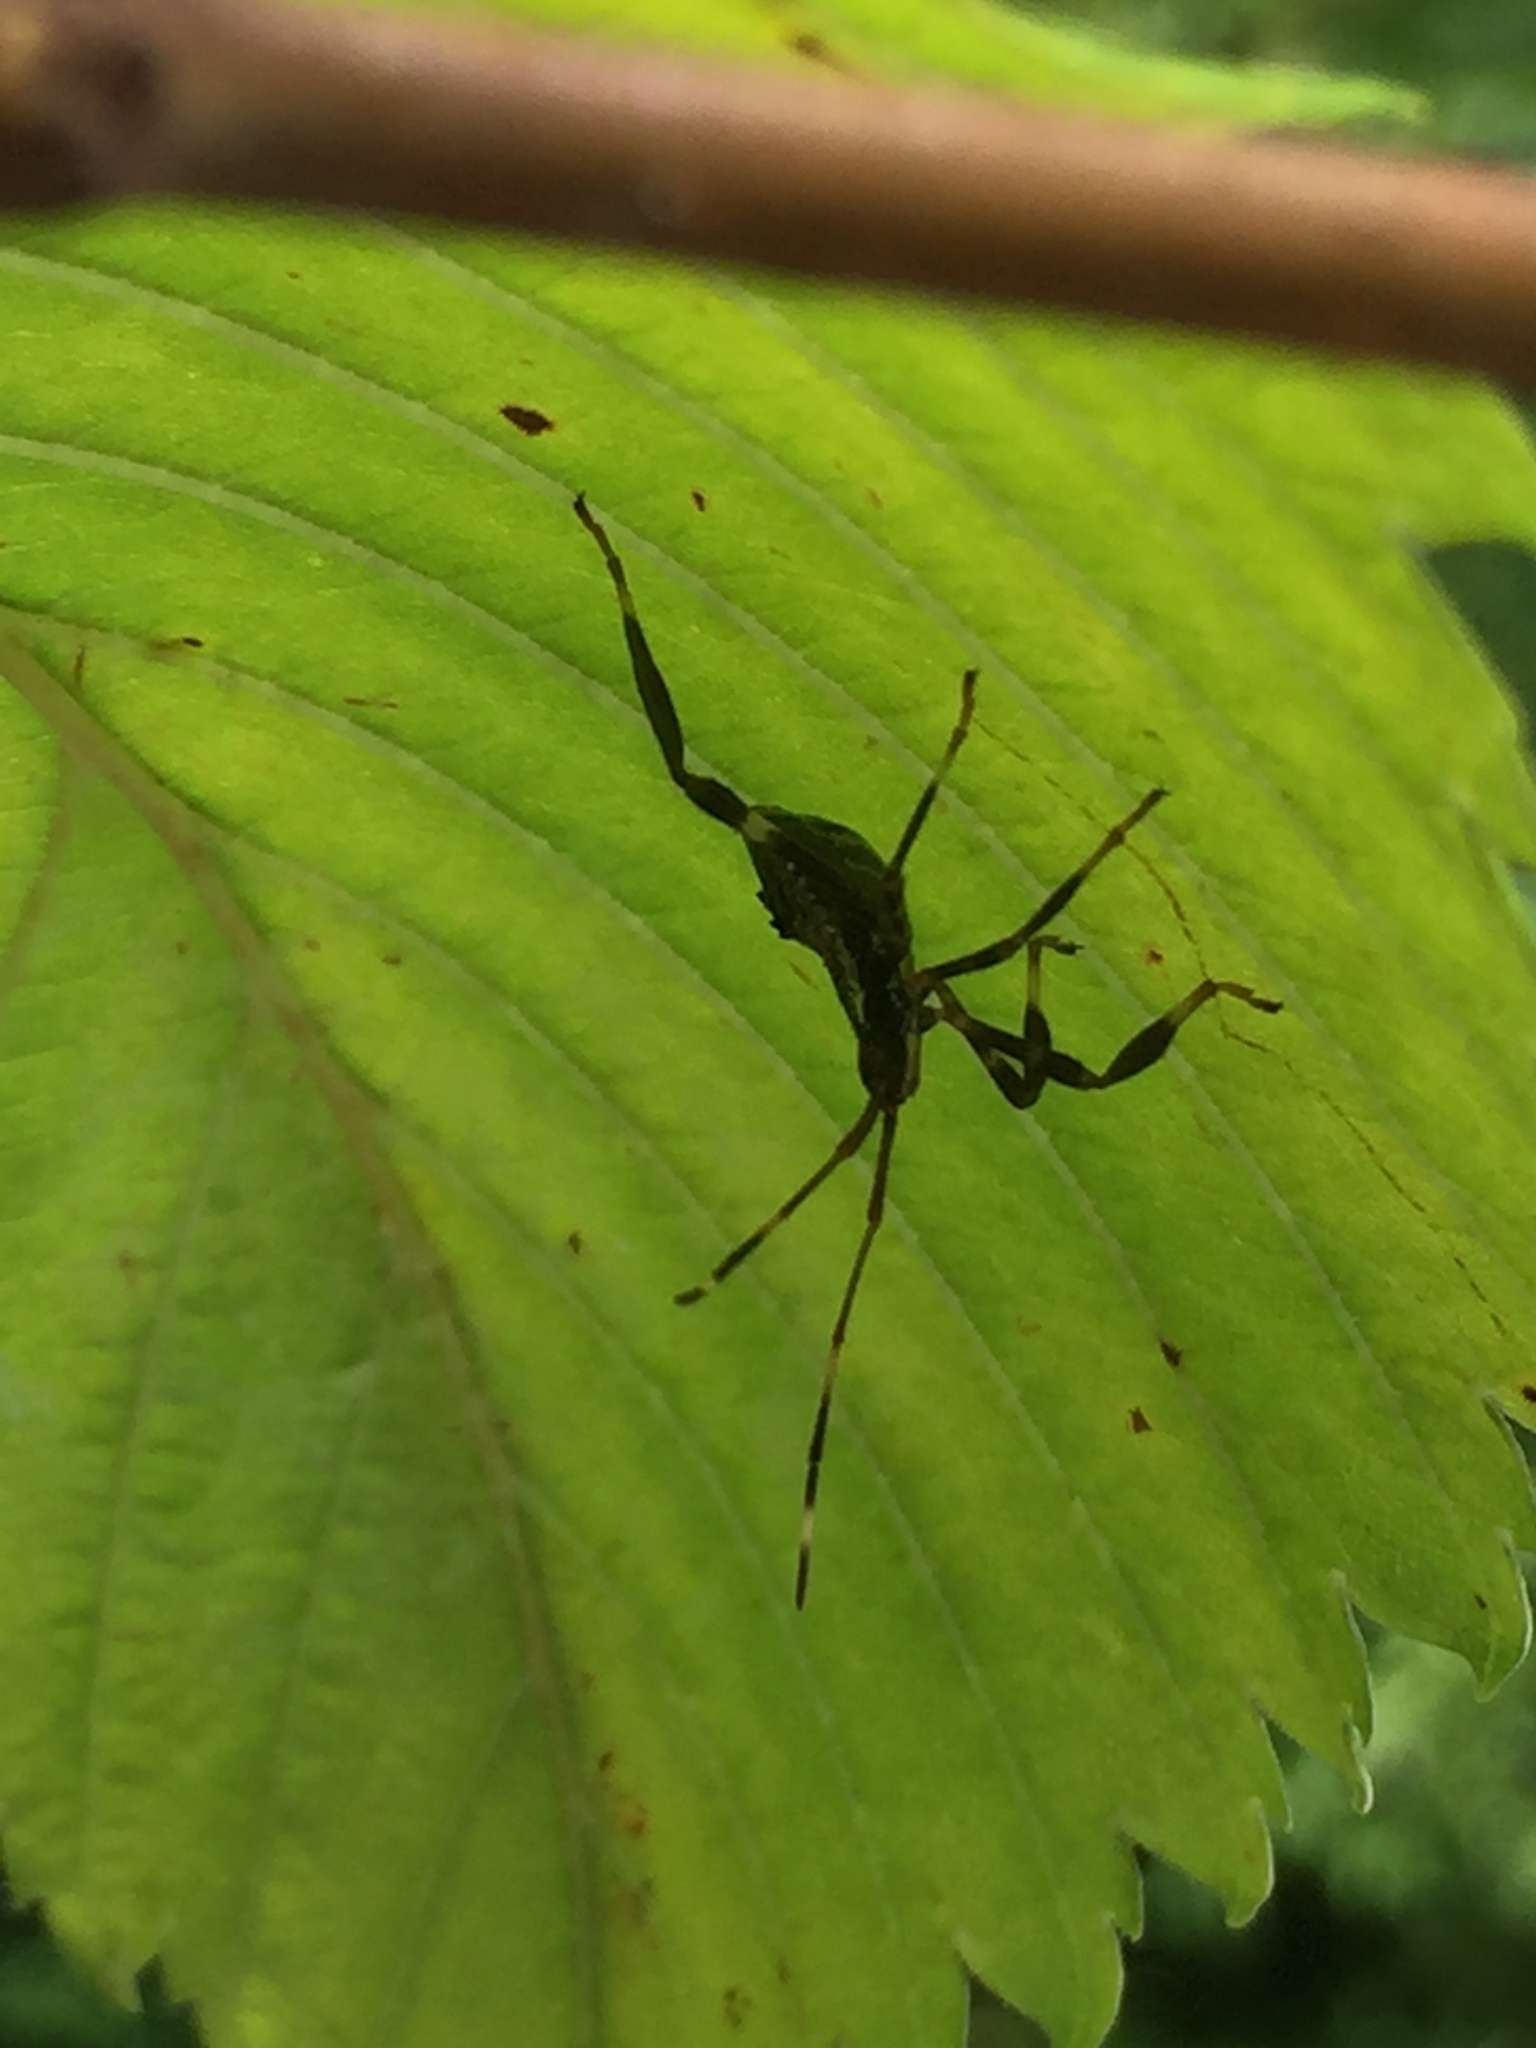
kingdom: Animalia
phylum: Arthropoda
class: Insecta
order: Hemiptera
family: Coreidae
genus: Acanthocephala
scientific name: Acanthocephala terminalis
